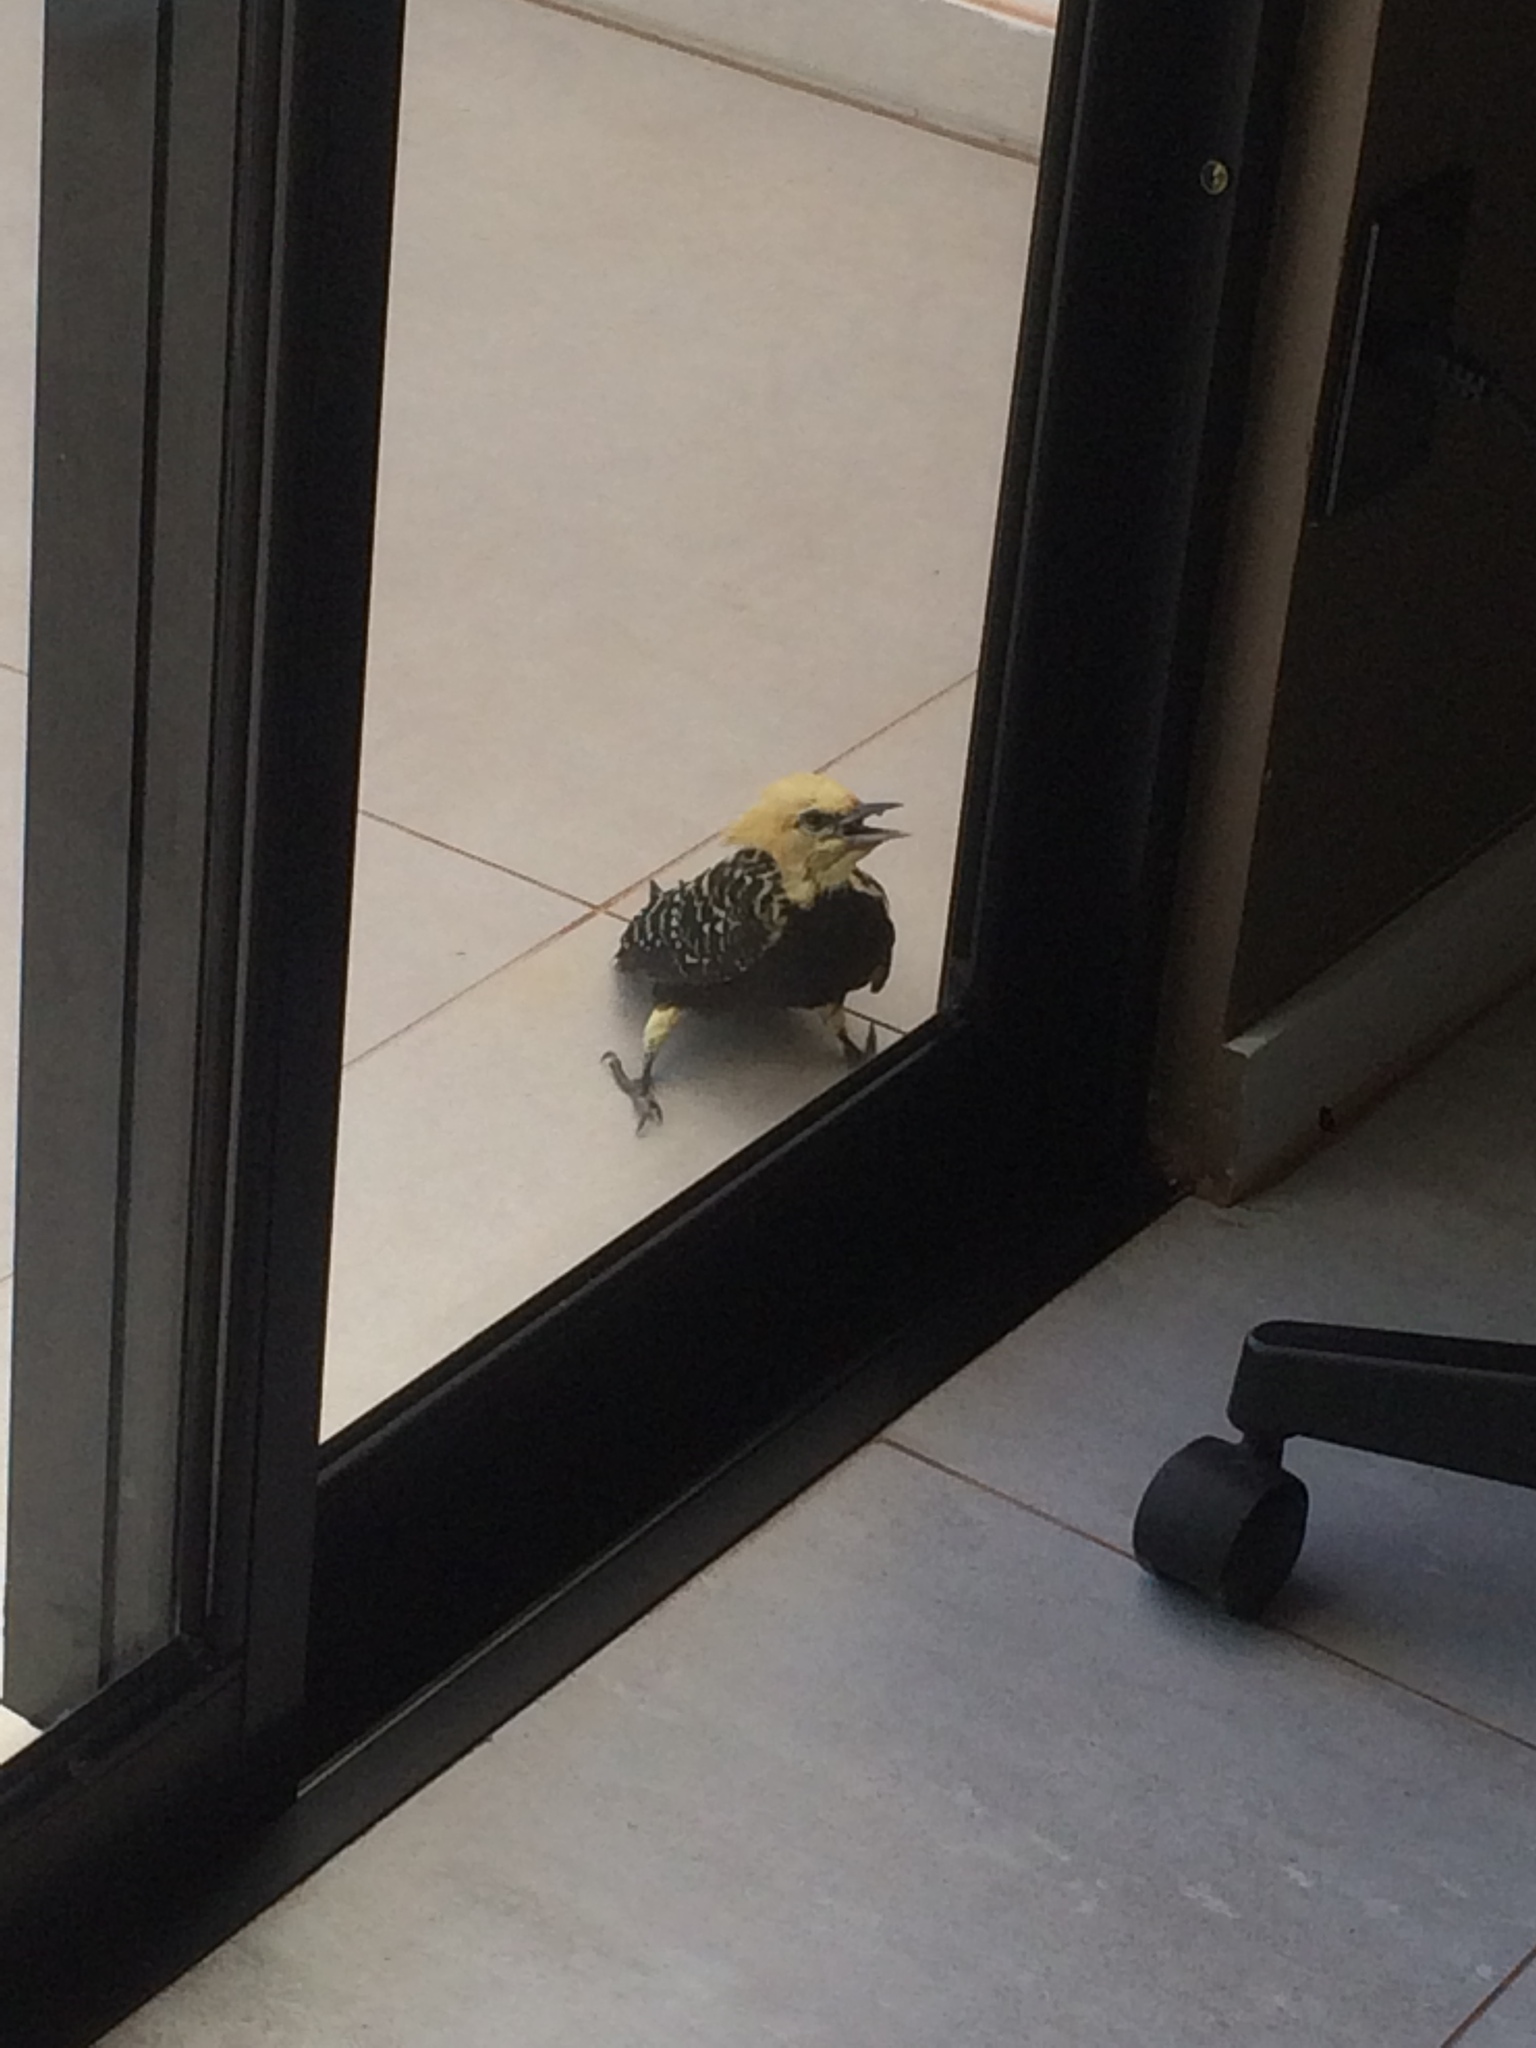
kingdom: Animalia
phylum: Chordata
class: Aves
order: Piciformes
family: Picidae
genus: Celeus
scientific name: Celeus flavescens
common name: Blond-crested woodpecker
